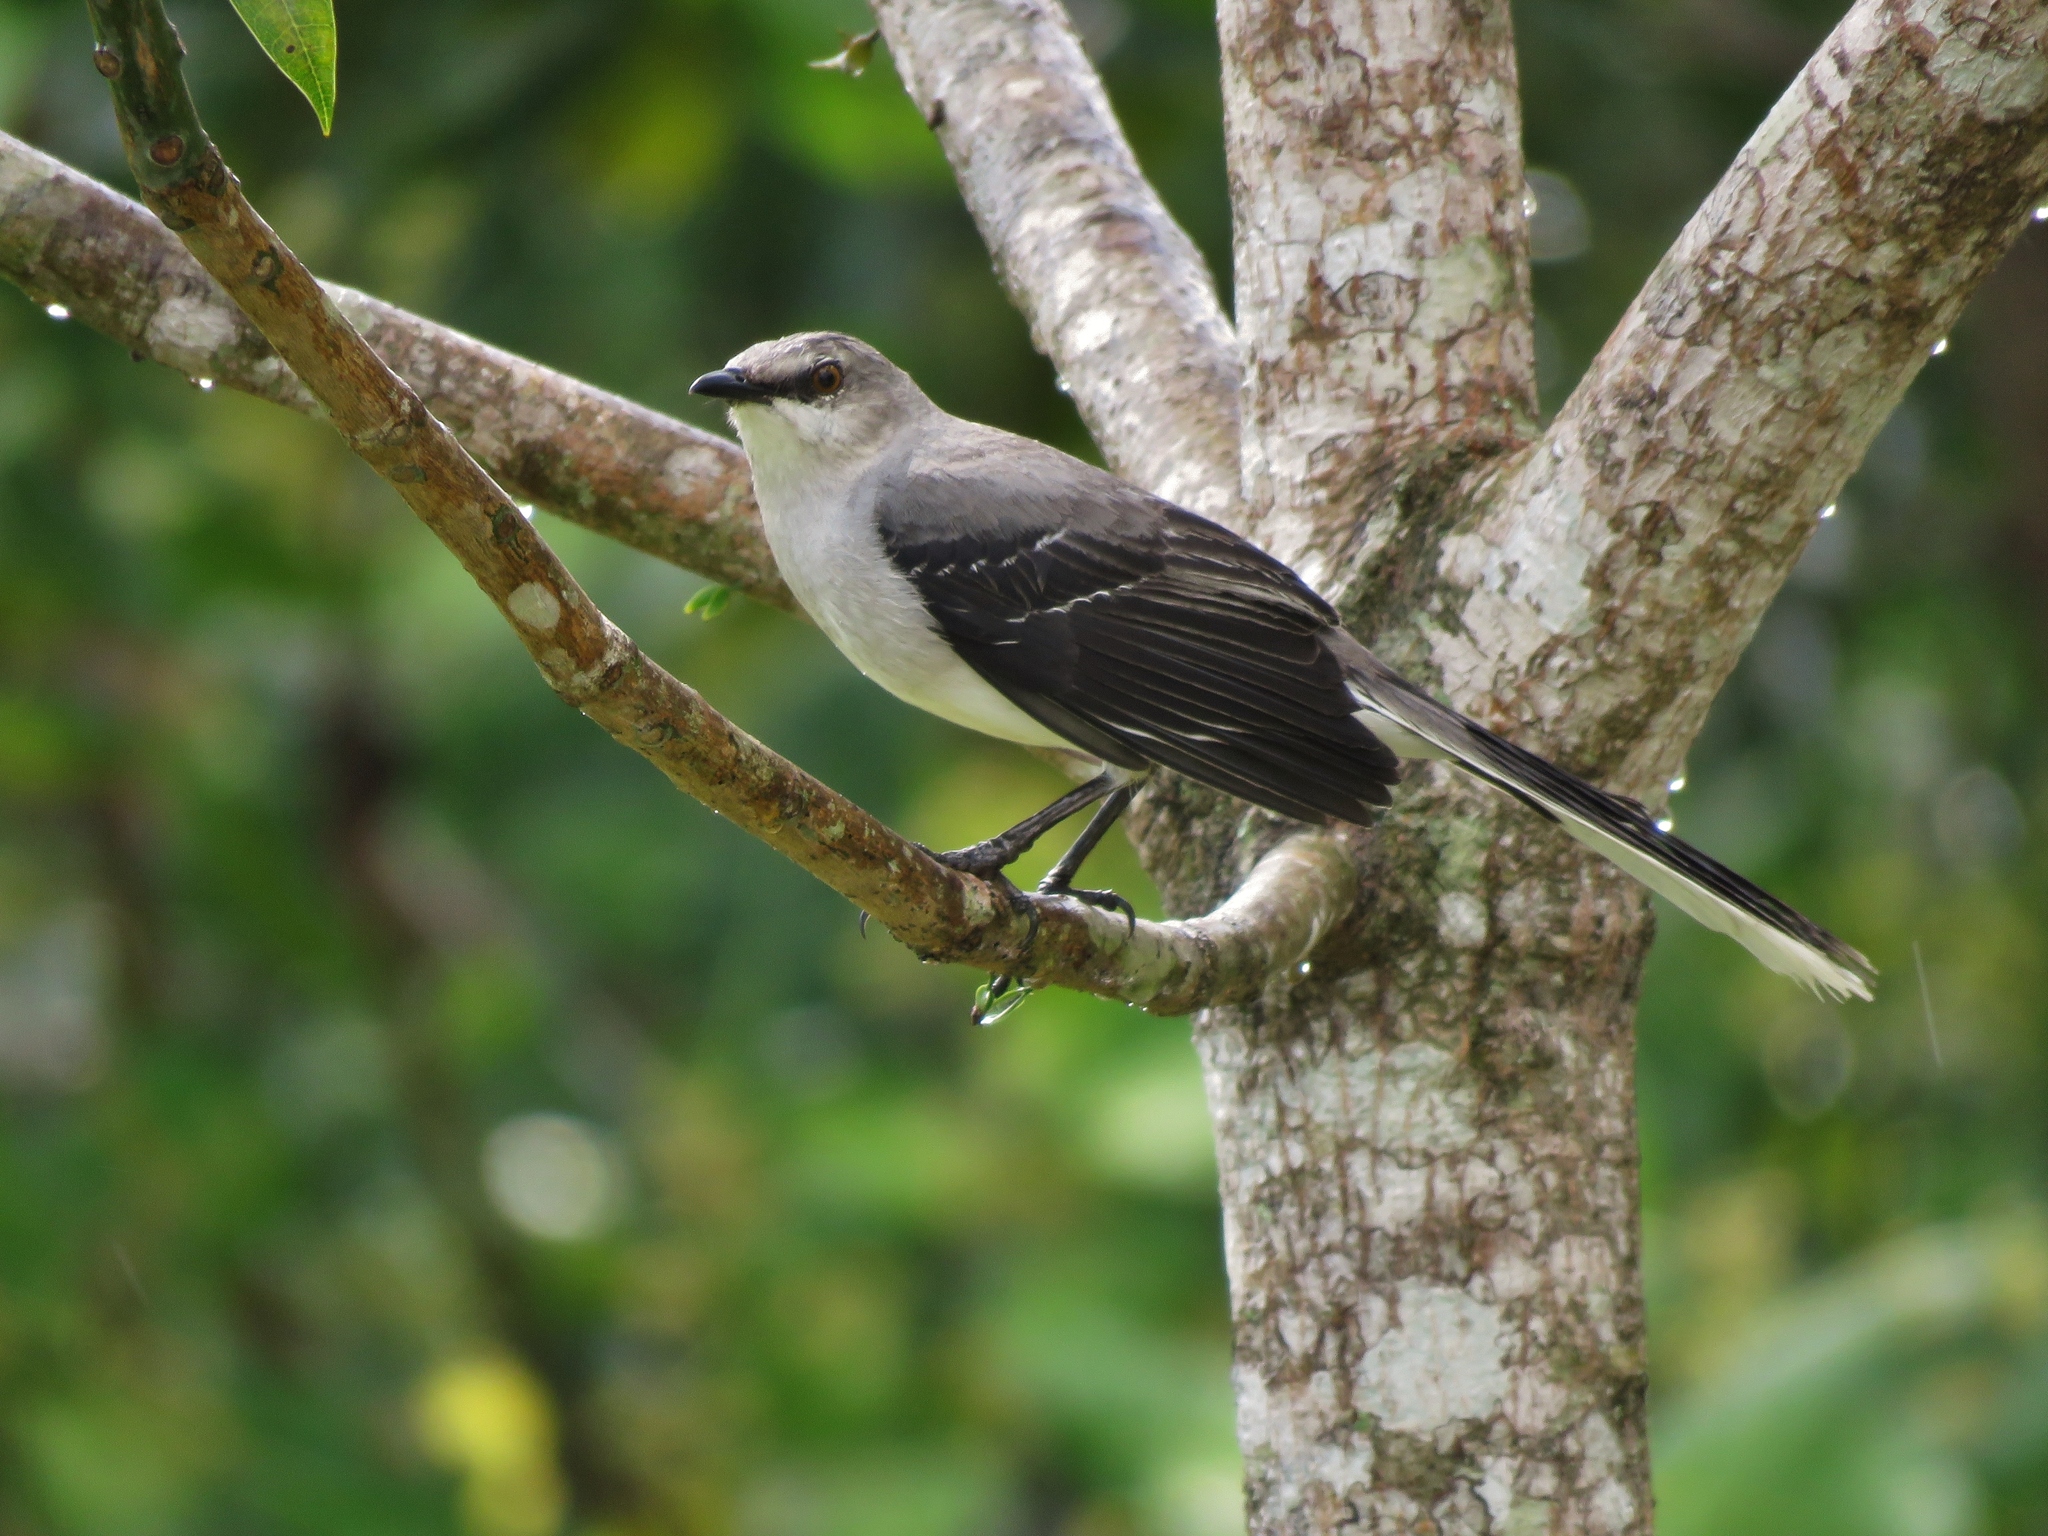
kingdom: Animalia
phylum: Chordata
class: Aves
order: Passeriformes
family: Mimidae
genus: Mimus
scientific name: Mimus gilvus
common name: Tropical mockingbird
